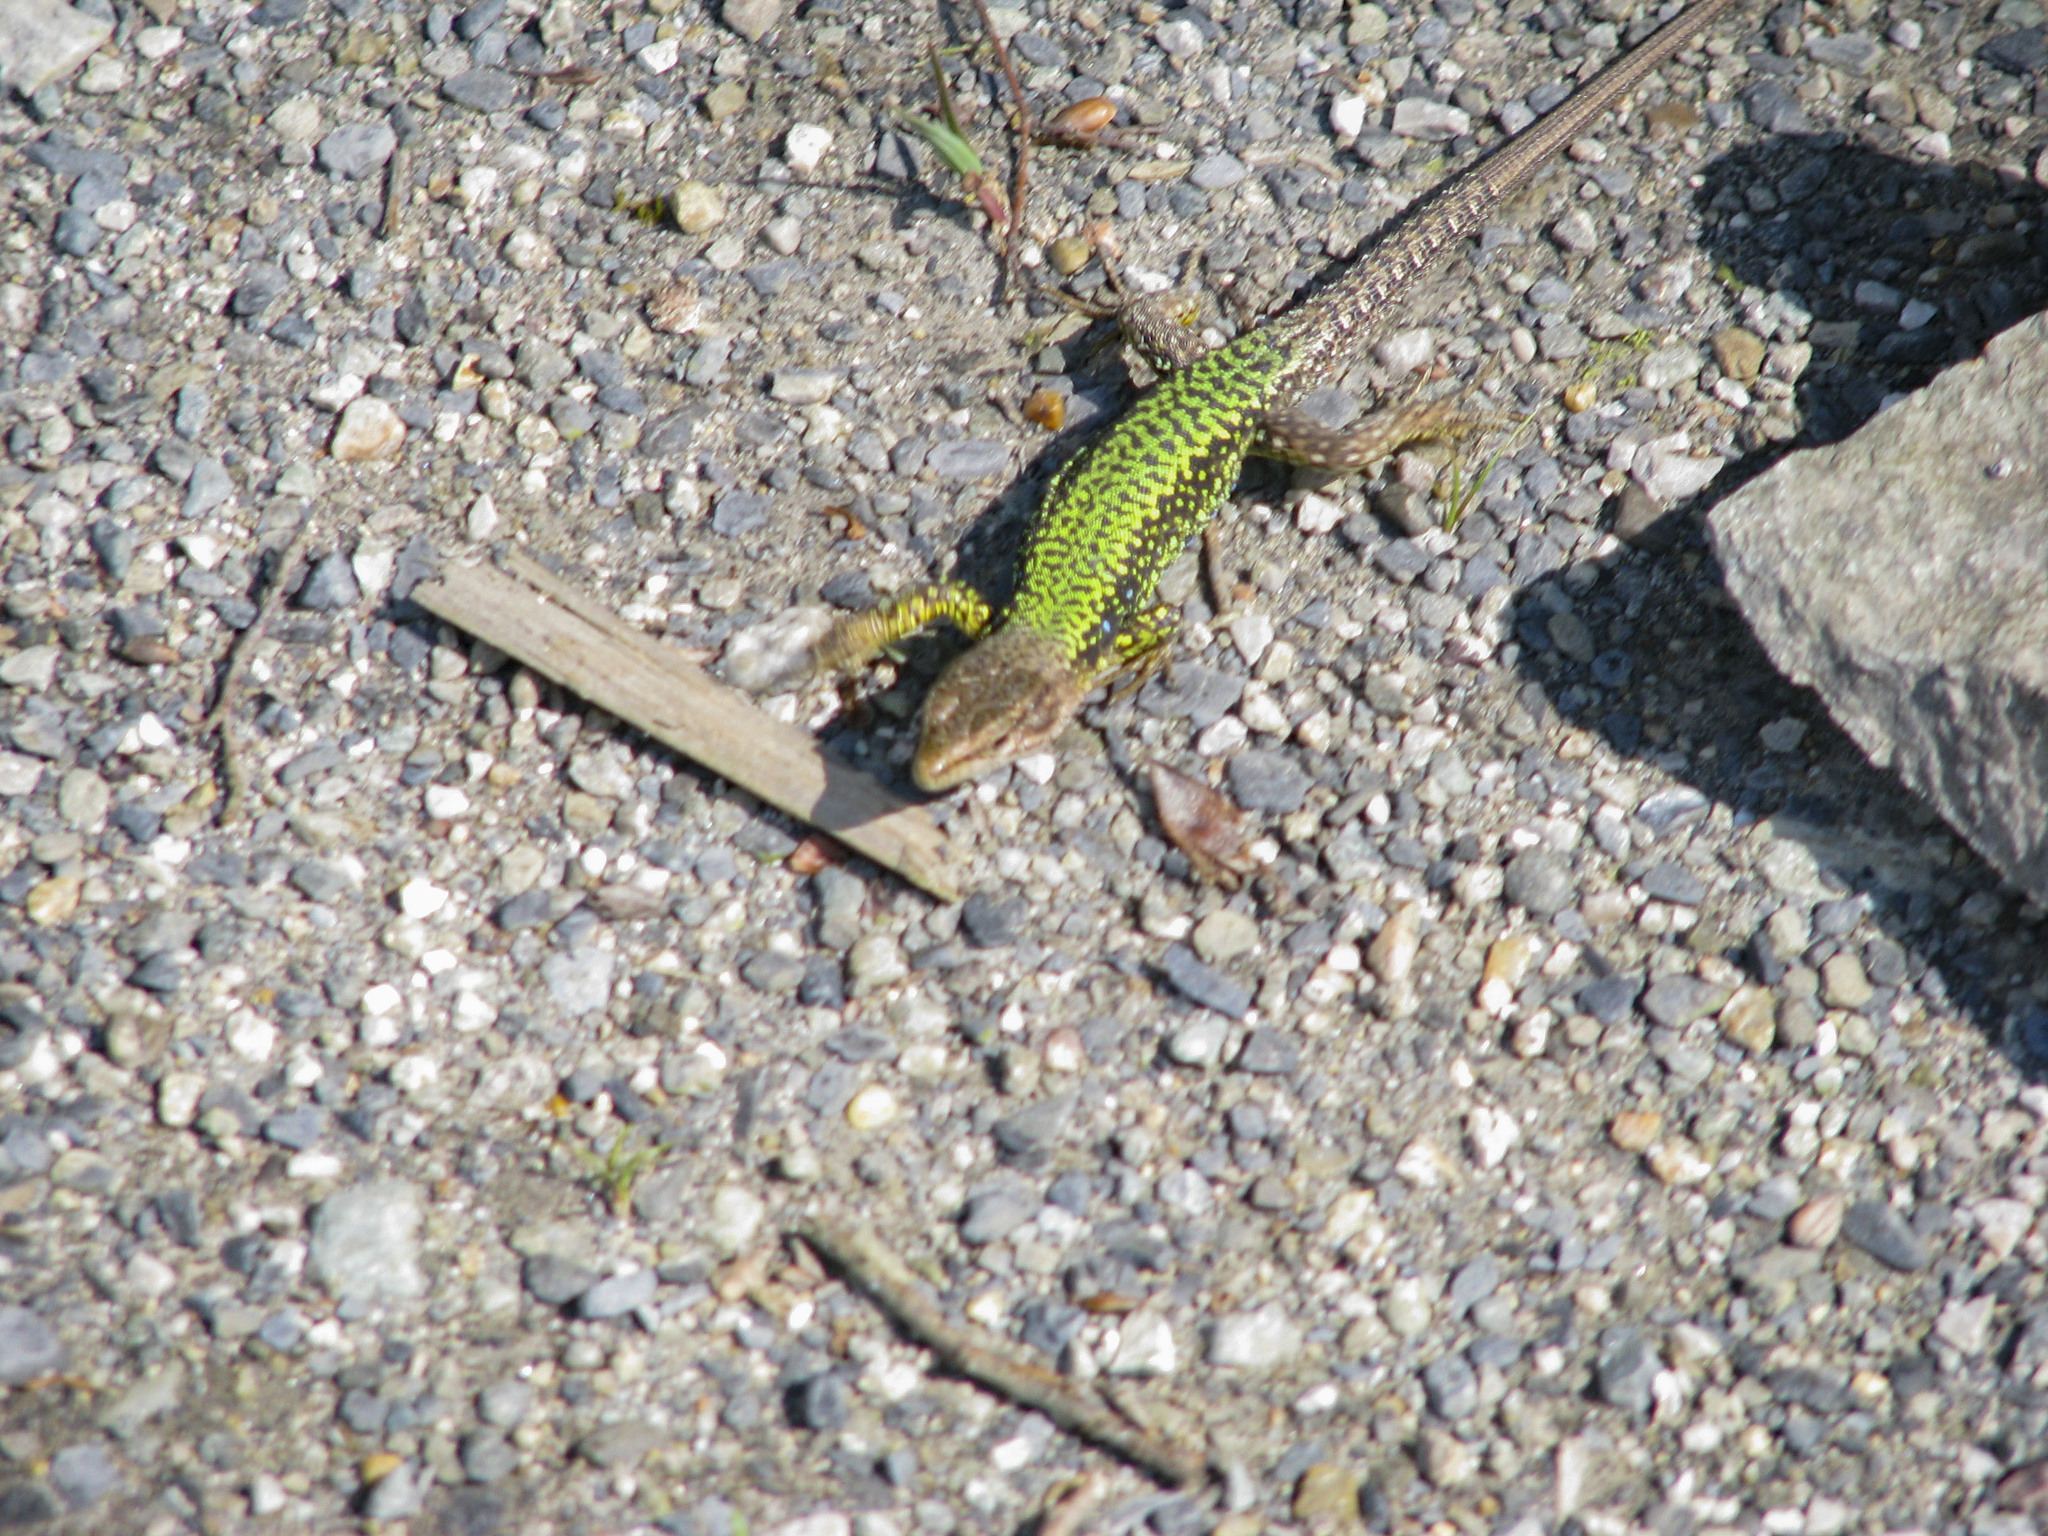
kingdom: Animalia
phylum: Chordata
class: Squamata
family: Lacertidae
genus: Darevskia
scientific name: Darevskia brauneri
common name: Brauner's rock lizard
